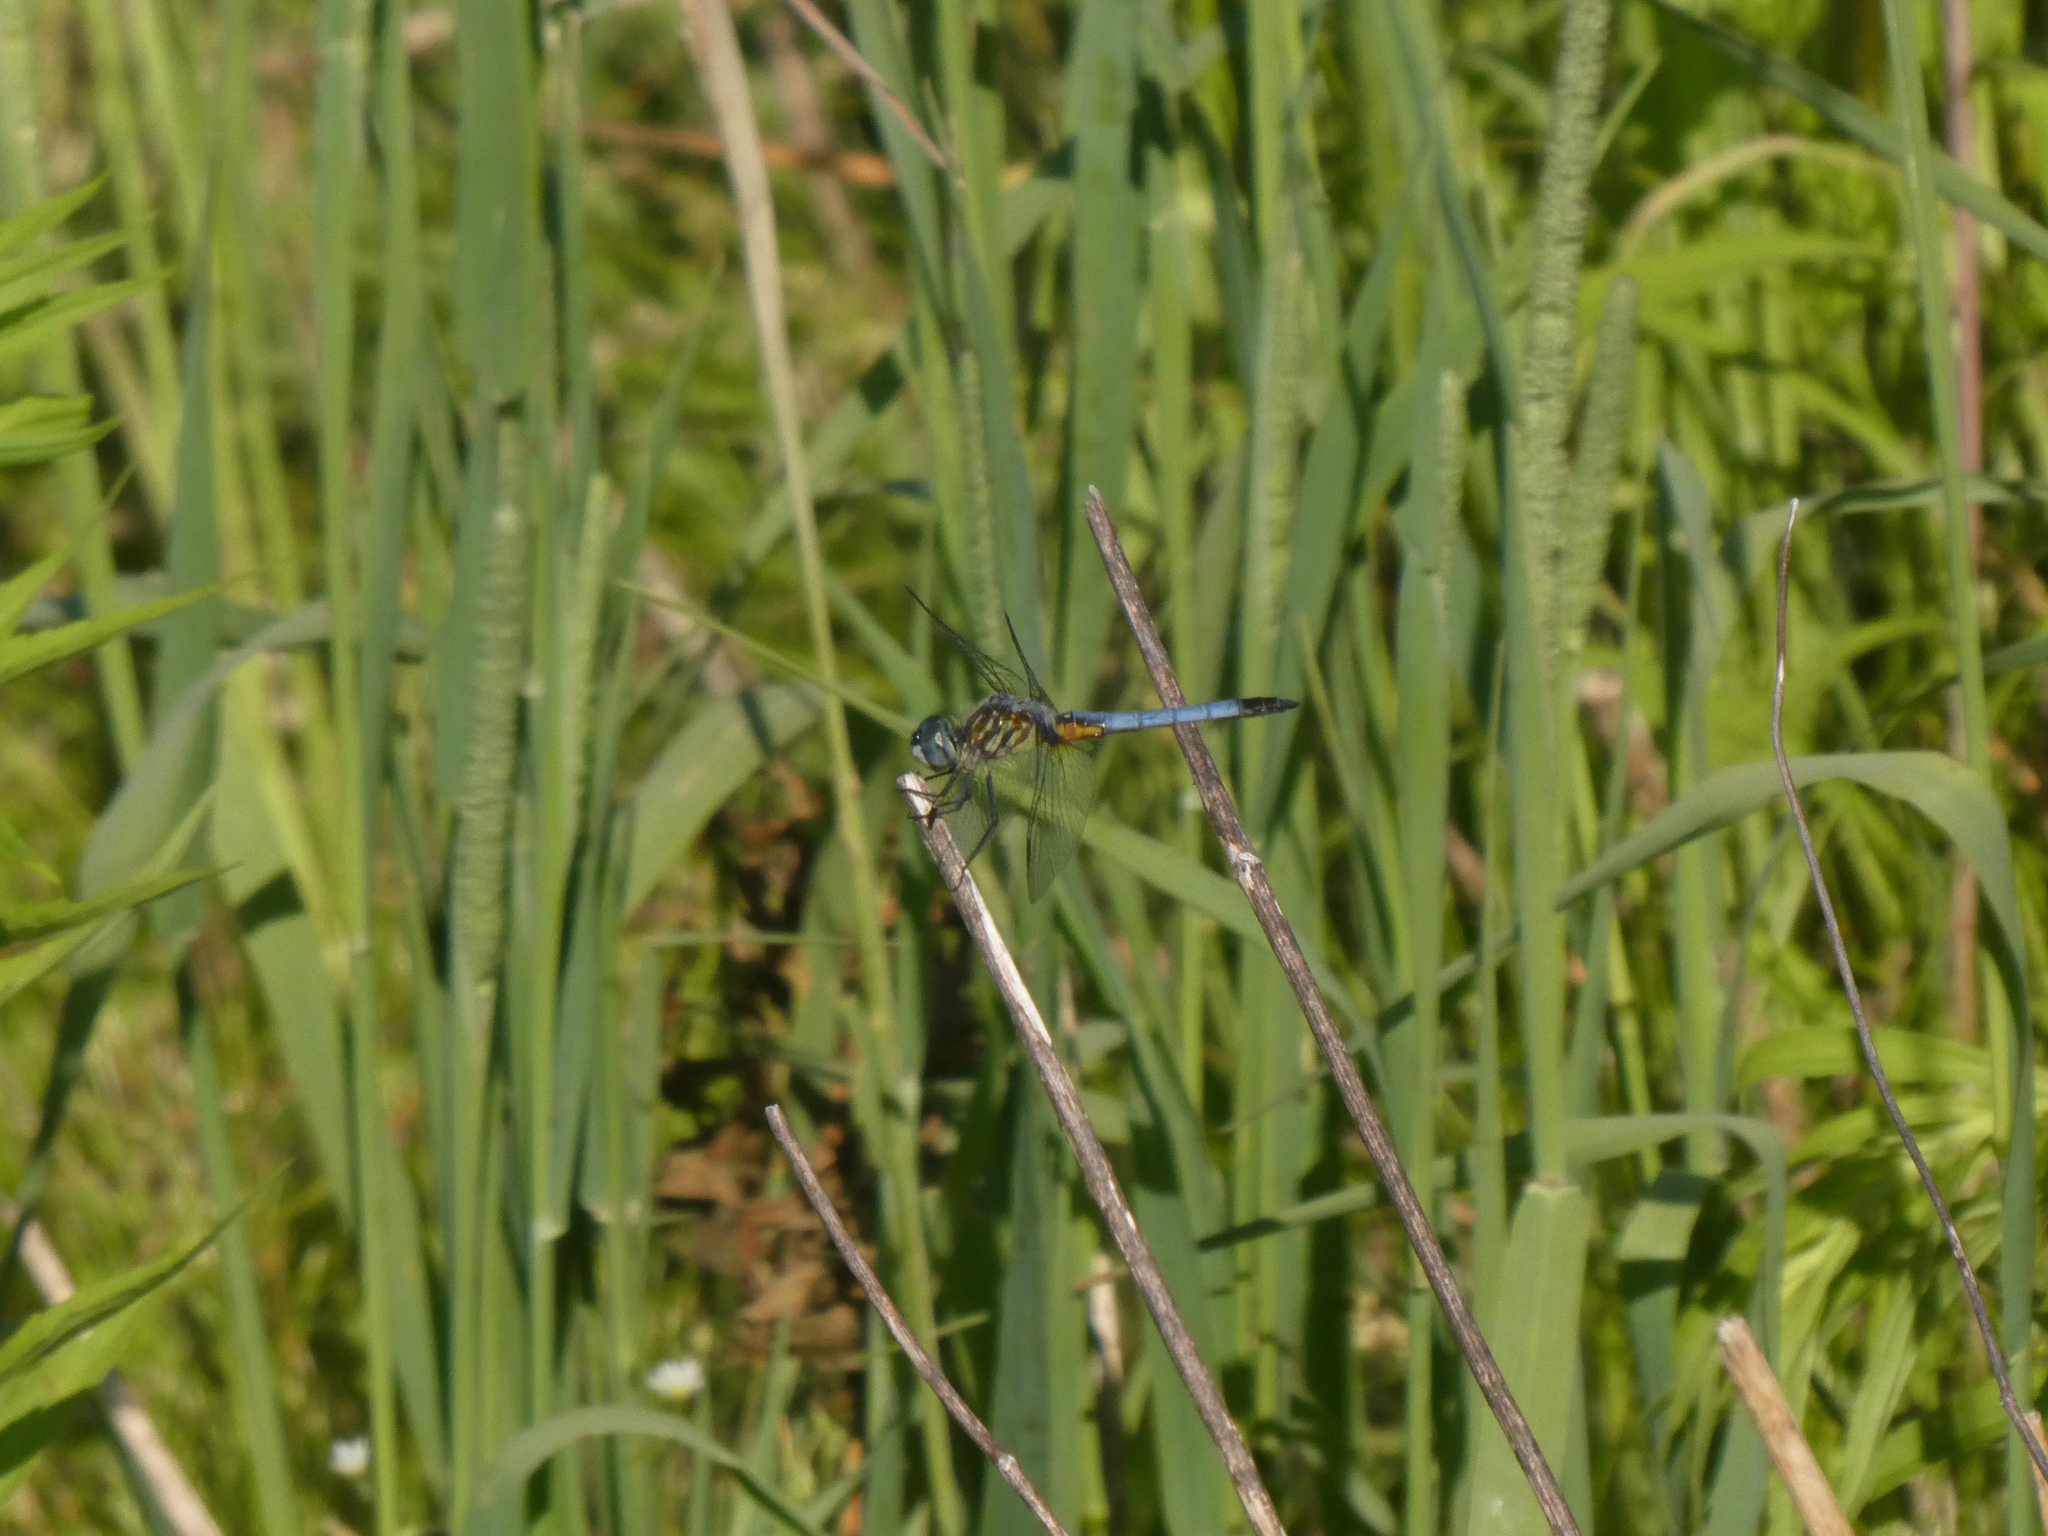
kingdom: Animalia
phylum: Arthropoda
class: Insecta
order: Odonata
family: Libellulidae
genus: Pachydiplax
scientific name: Pachydiplax longipennis
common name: Blue dasher
